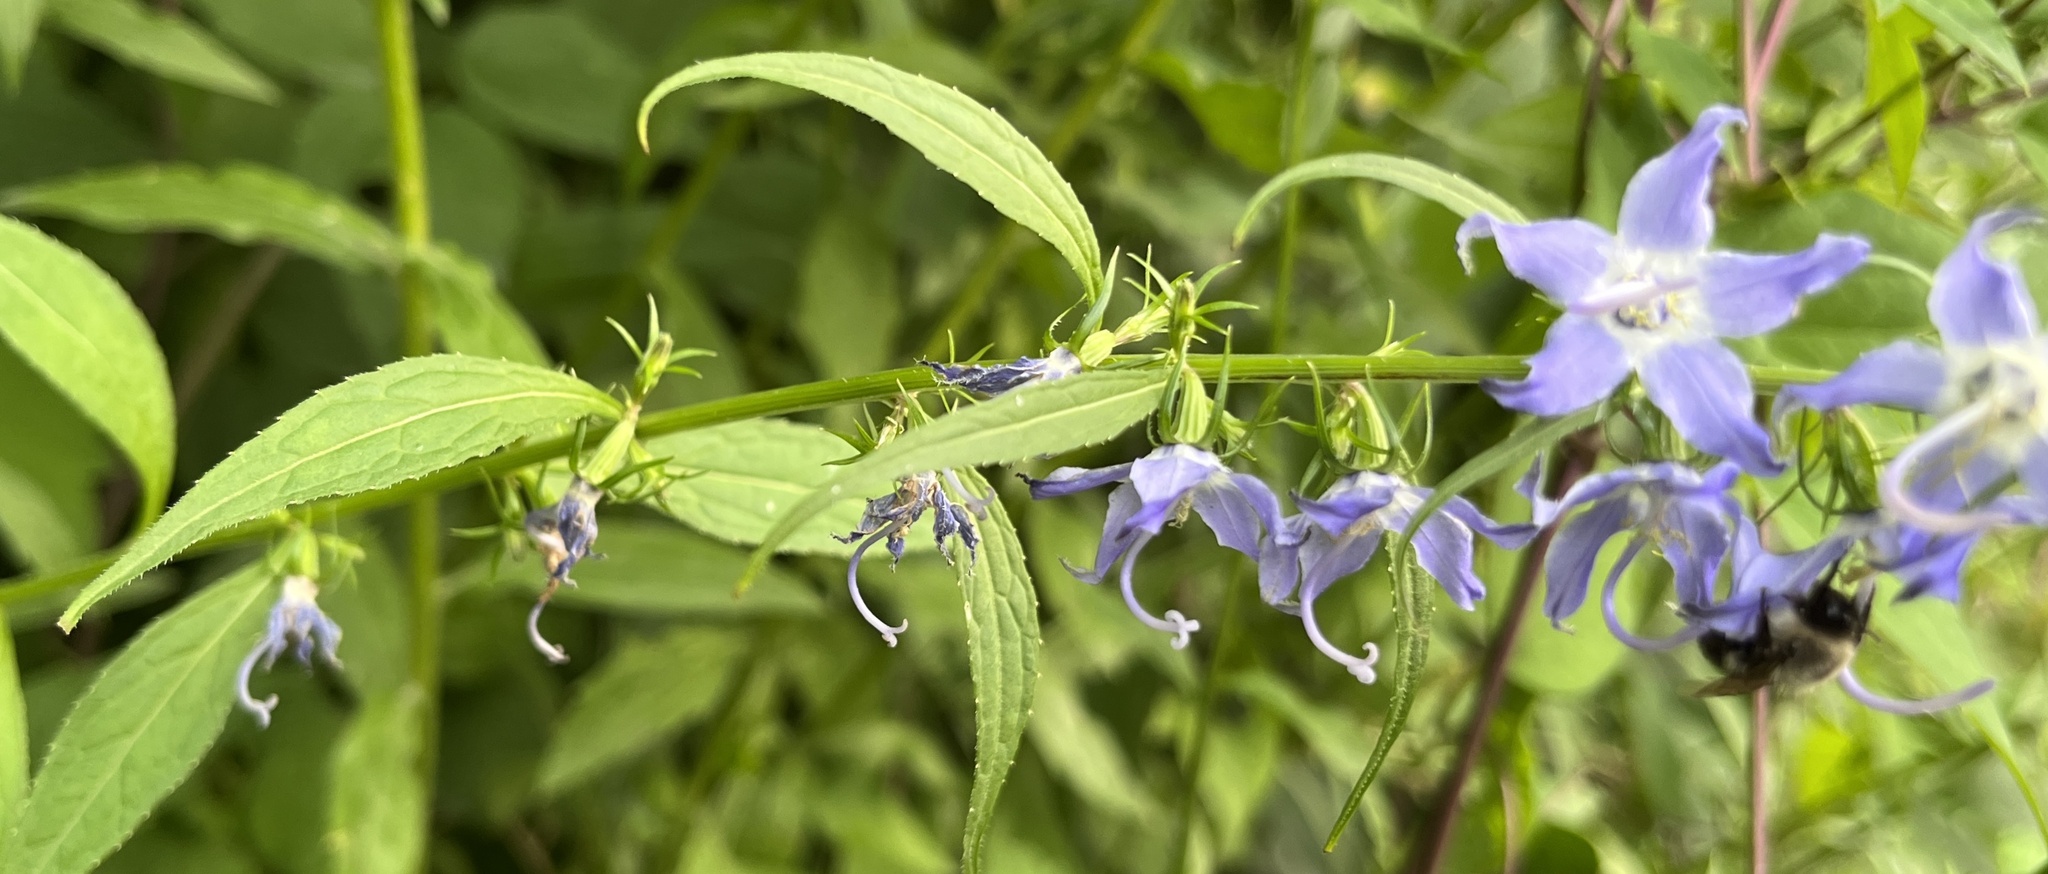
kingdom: Plantae
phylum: Tracheophyta
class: Magnoliopsida
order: Asterales
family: Campanulaceae
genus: Campanulastrum
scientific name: Campanulastrum americanum
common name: American bellflower
